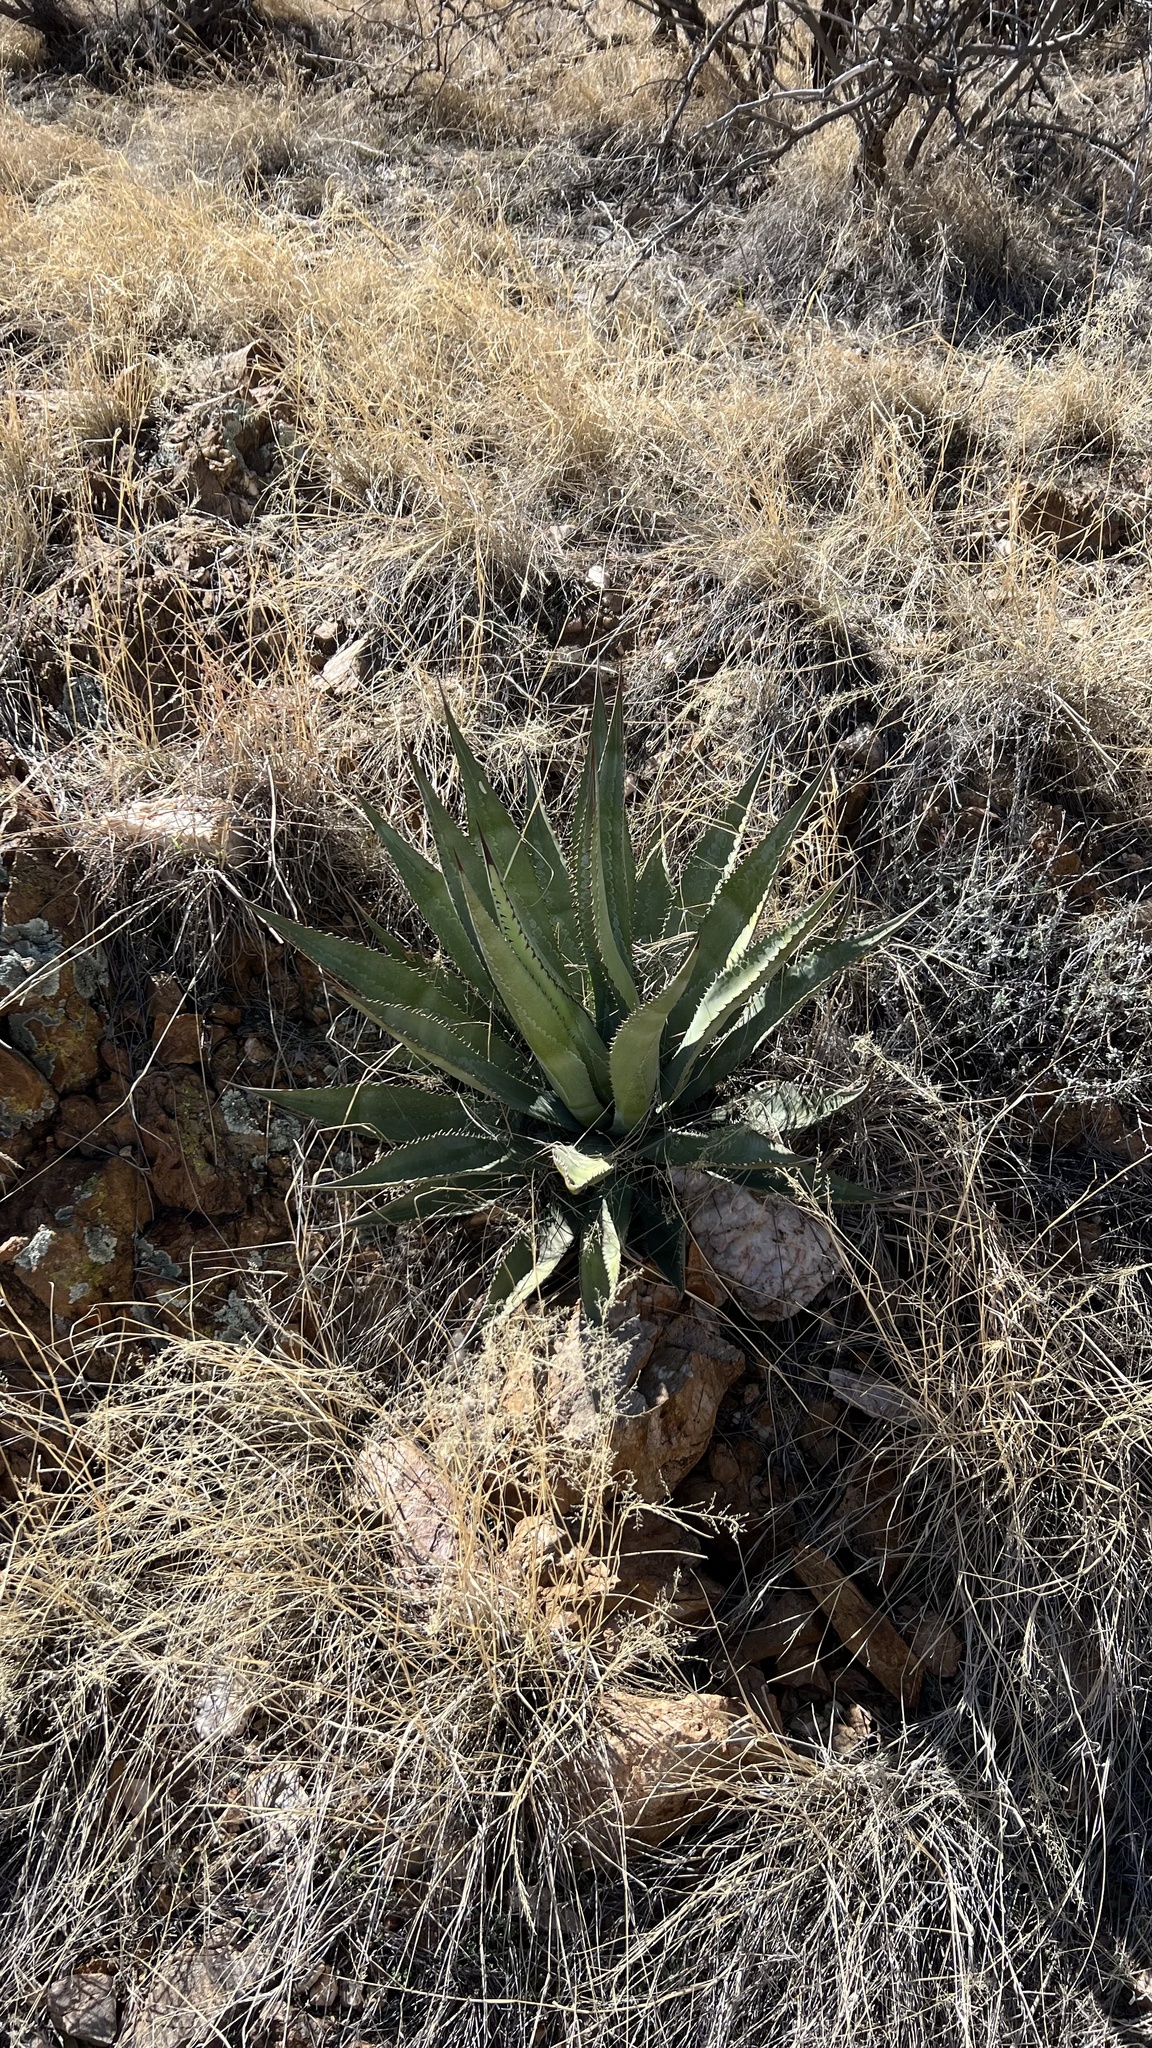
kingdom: Plantae
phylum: Tracheophyta
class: Liliopsida
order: Asparagales
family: Asparagaceae
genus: Agave
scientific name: Agave palmeri
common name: Palmer agave
